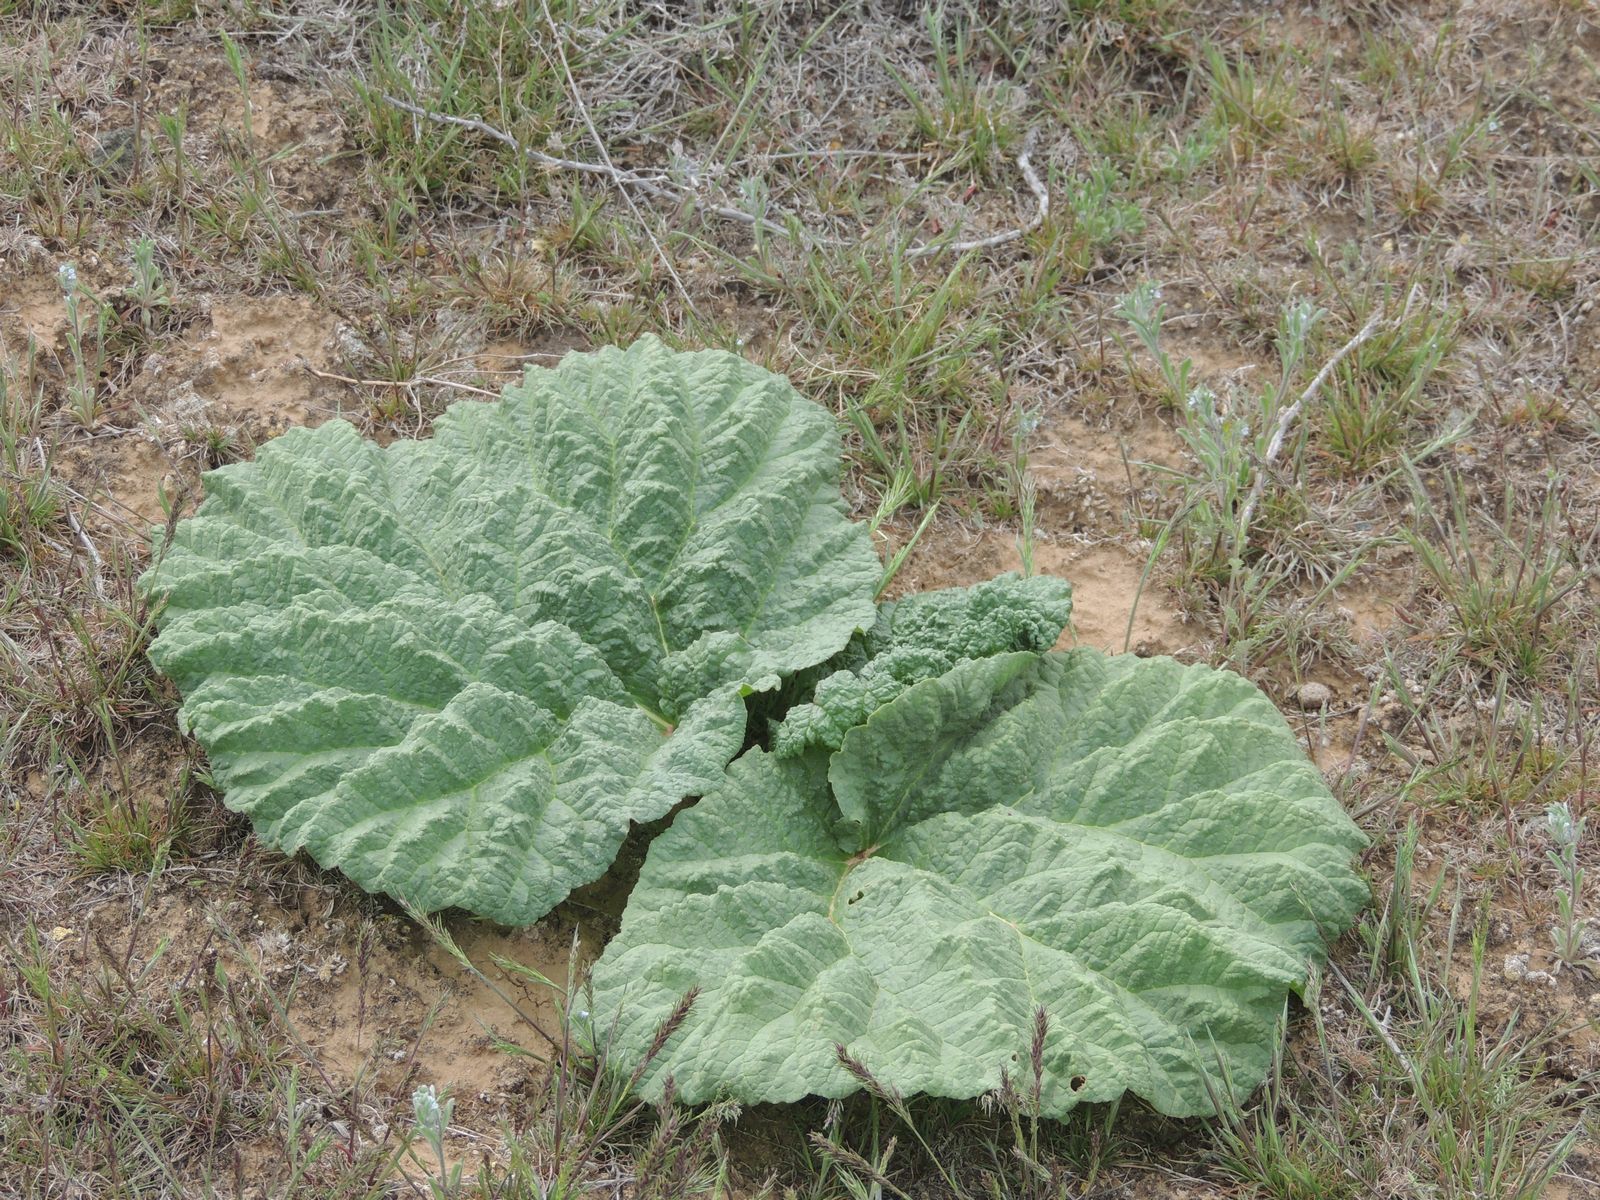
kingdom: Plantae
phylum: Tracheophyta
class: Magnoliopsida
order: Caryophyllales
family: Polygonaceae
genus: Rheum
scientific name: Rheum tataricum
